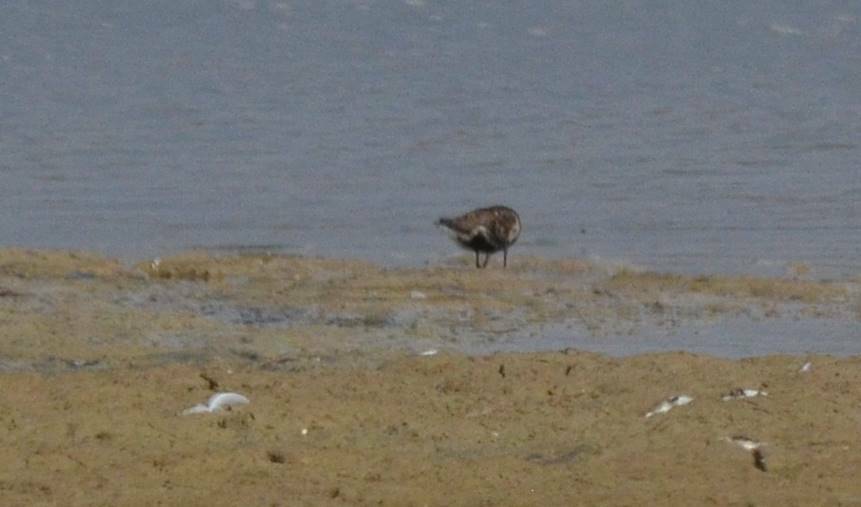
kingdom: Animalia
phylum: Chordata
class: Aves
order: Charadriiformes
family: Scolopacidae
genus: Calidris
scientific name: Calidris alpina
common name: Dunlin
